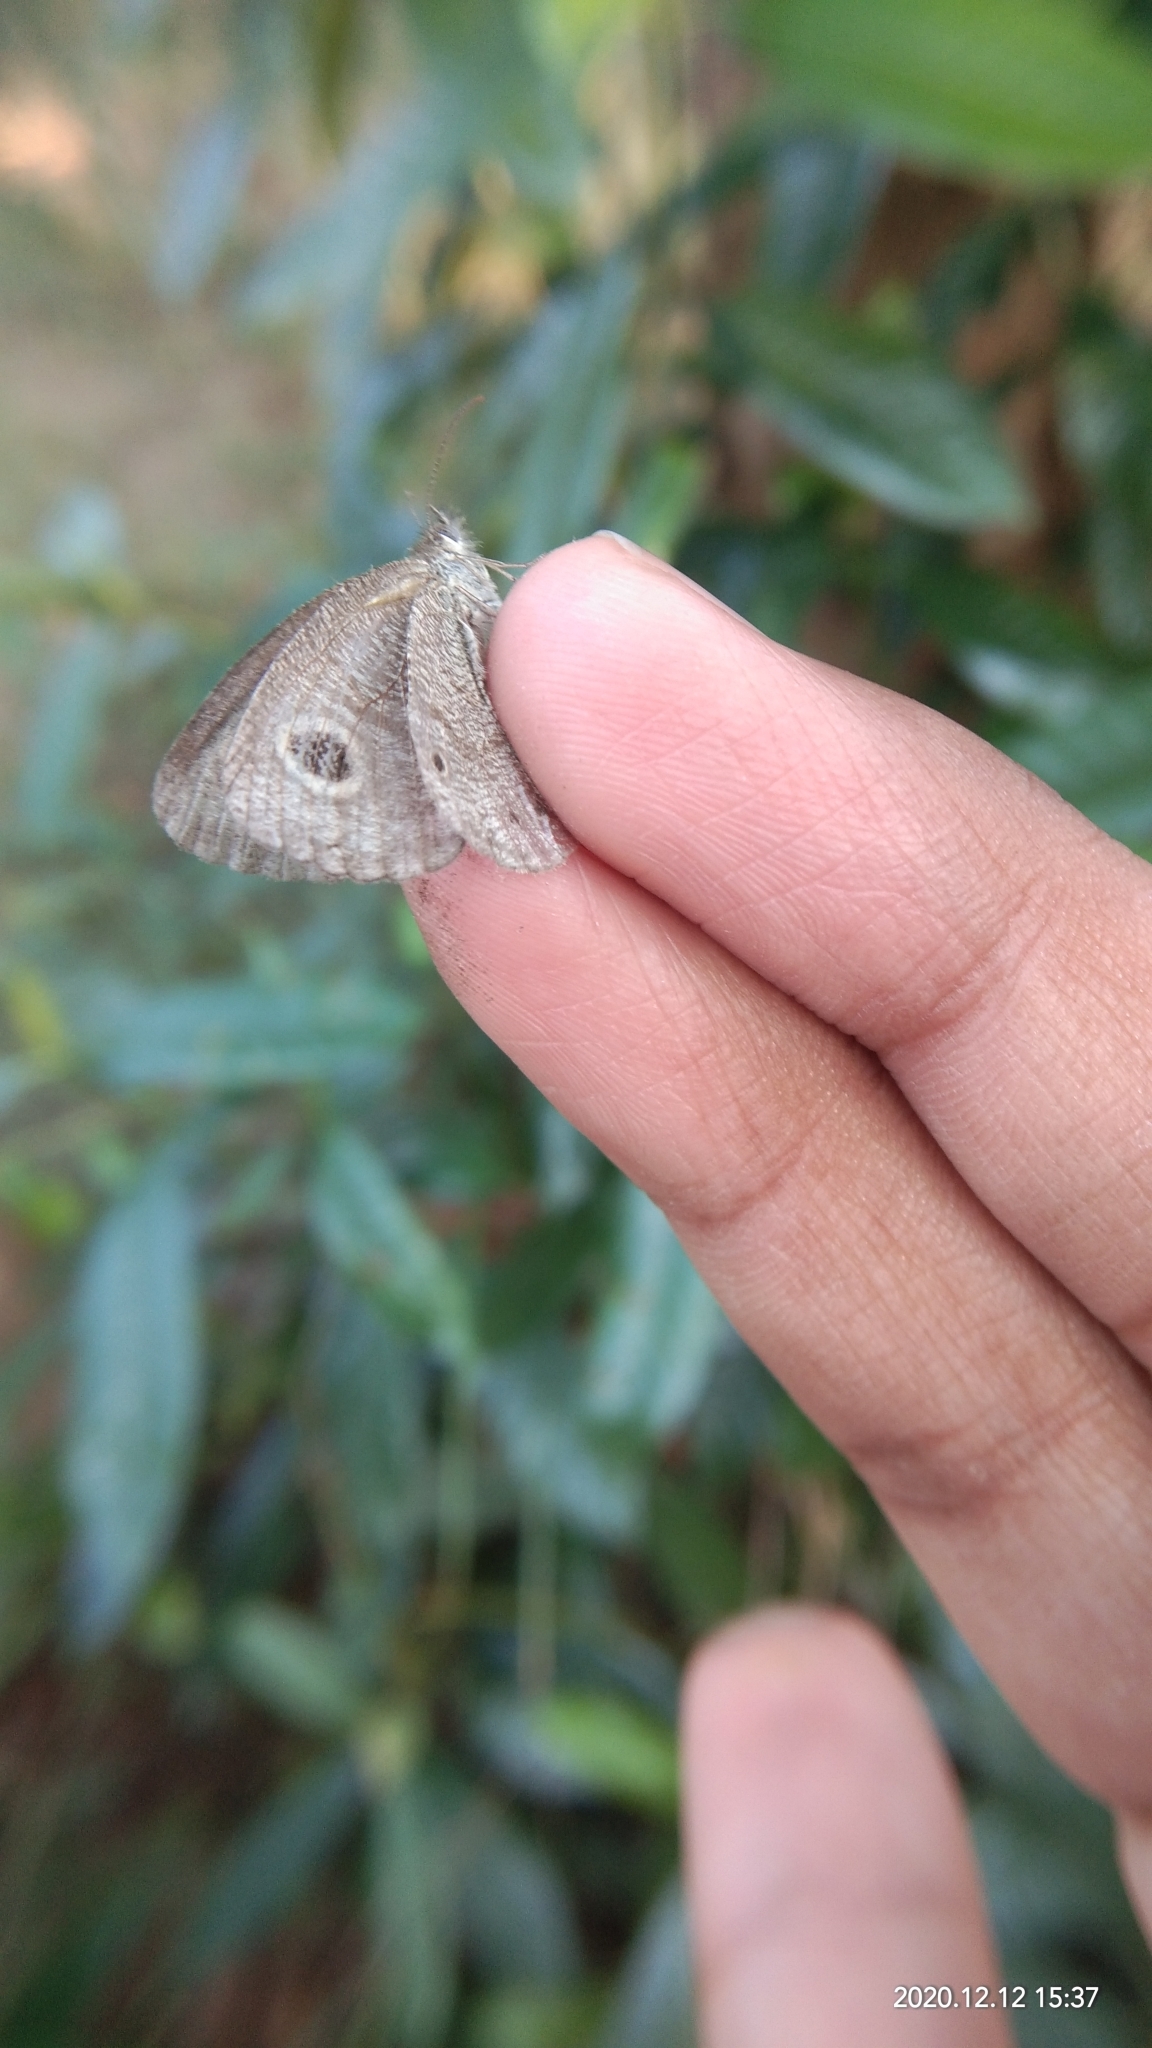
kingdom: Animalia
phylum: Arthropoda
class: Insecta
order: Lepidoptera
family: Nymphalidae
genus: Ypthima
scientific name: Ypthima huebneri
